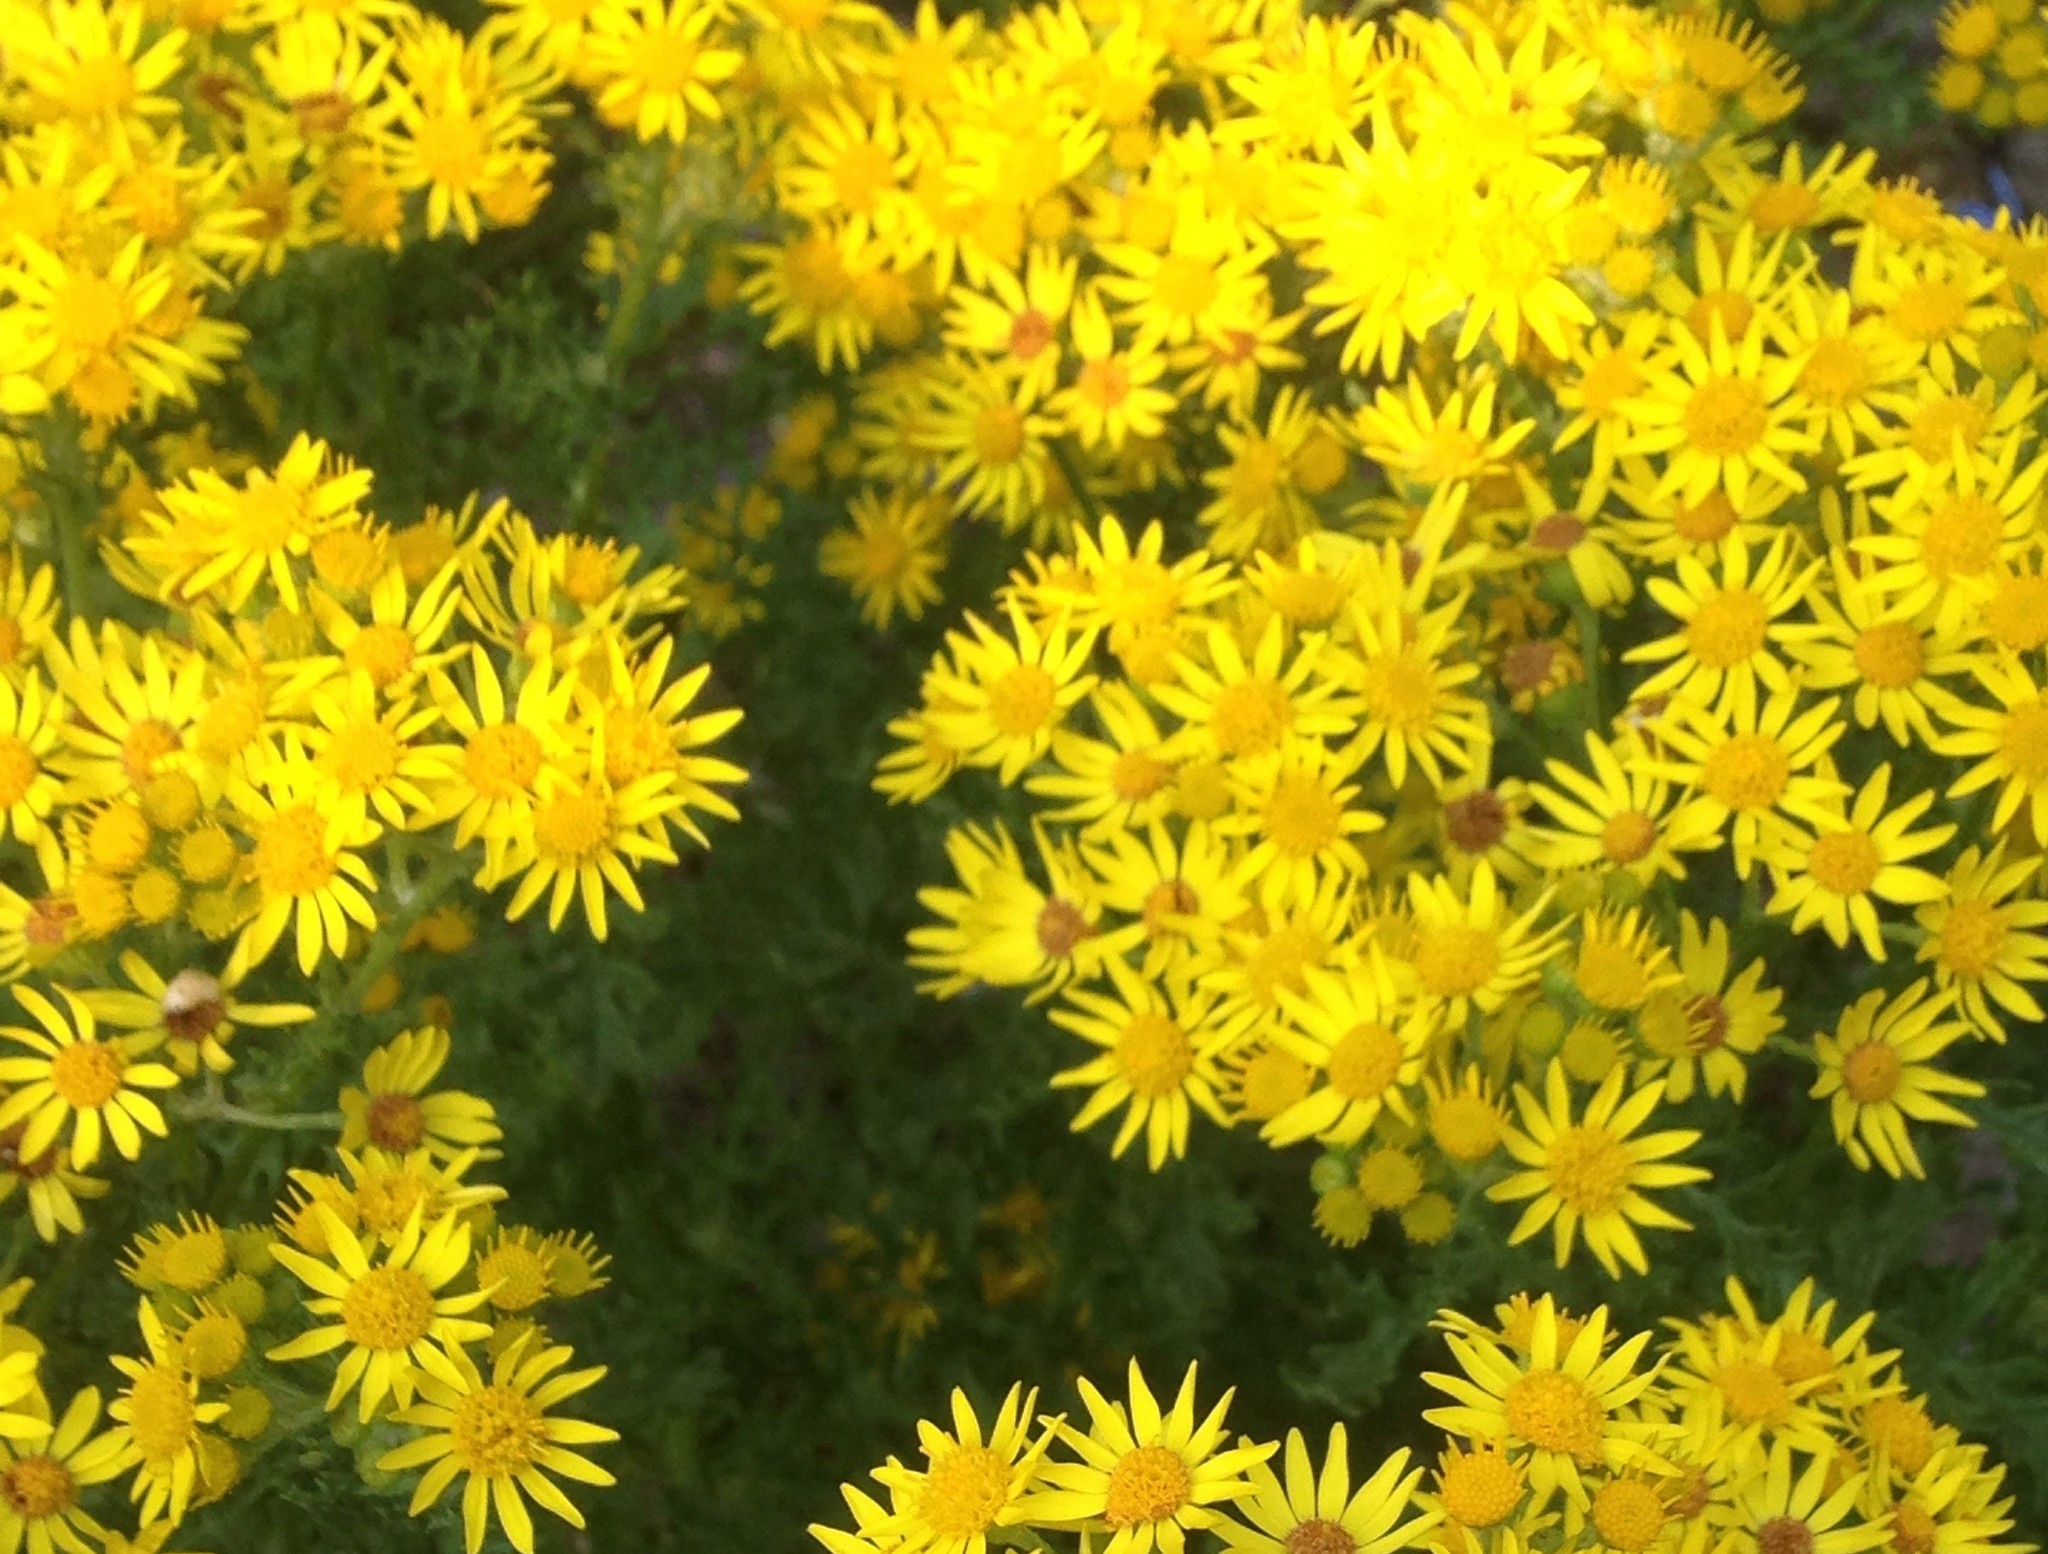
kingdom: Plantae
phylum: Tracheophyta
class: Magnoliopsida
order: Asterales
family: Asteraceae
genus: Jacobaea
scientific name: Jacobaea vulgaris
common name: Stinking willie
